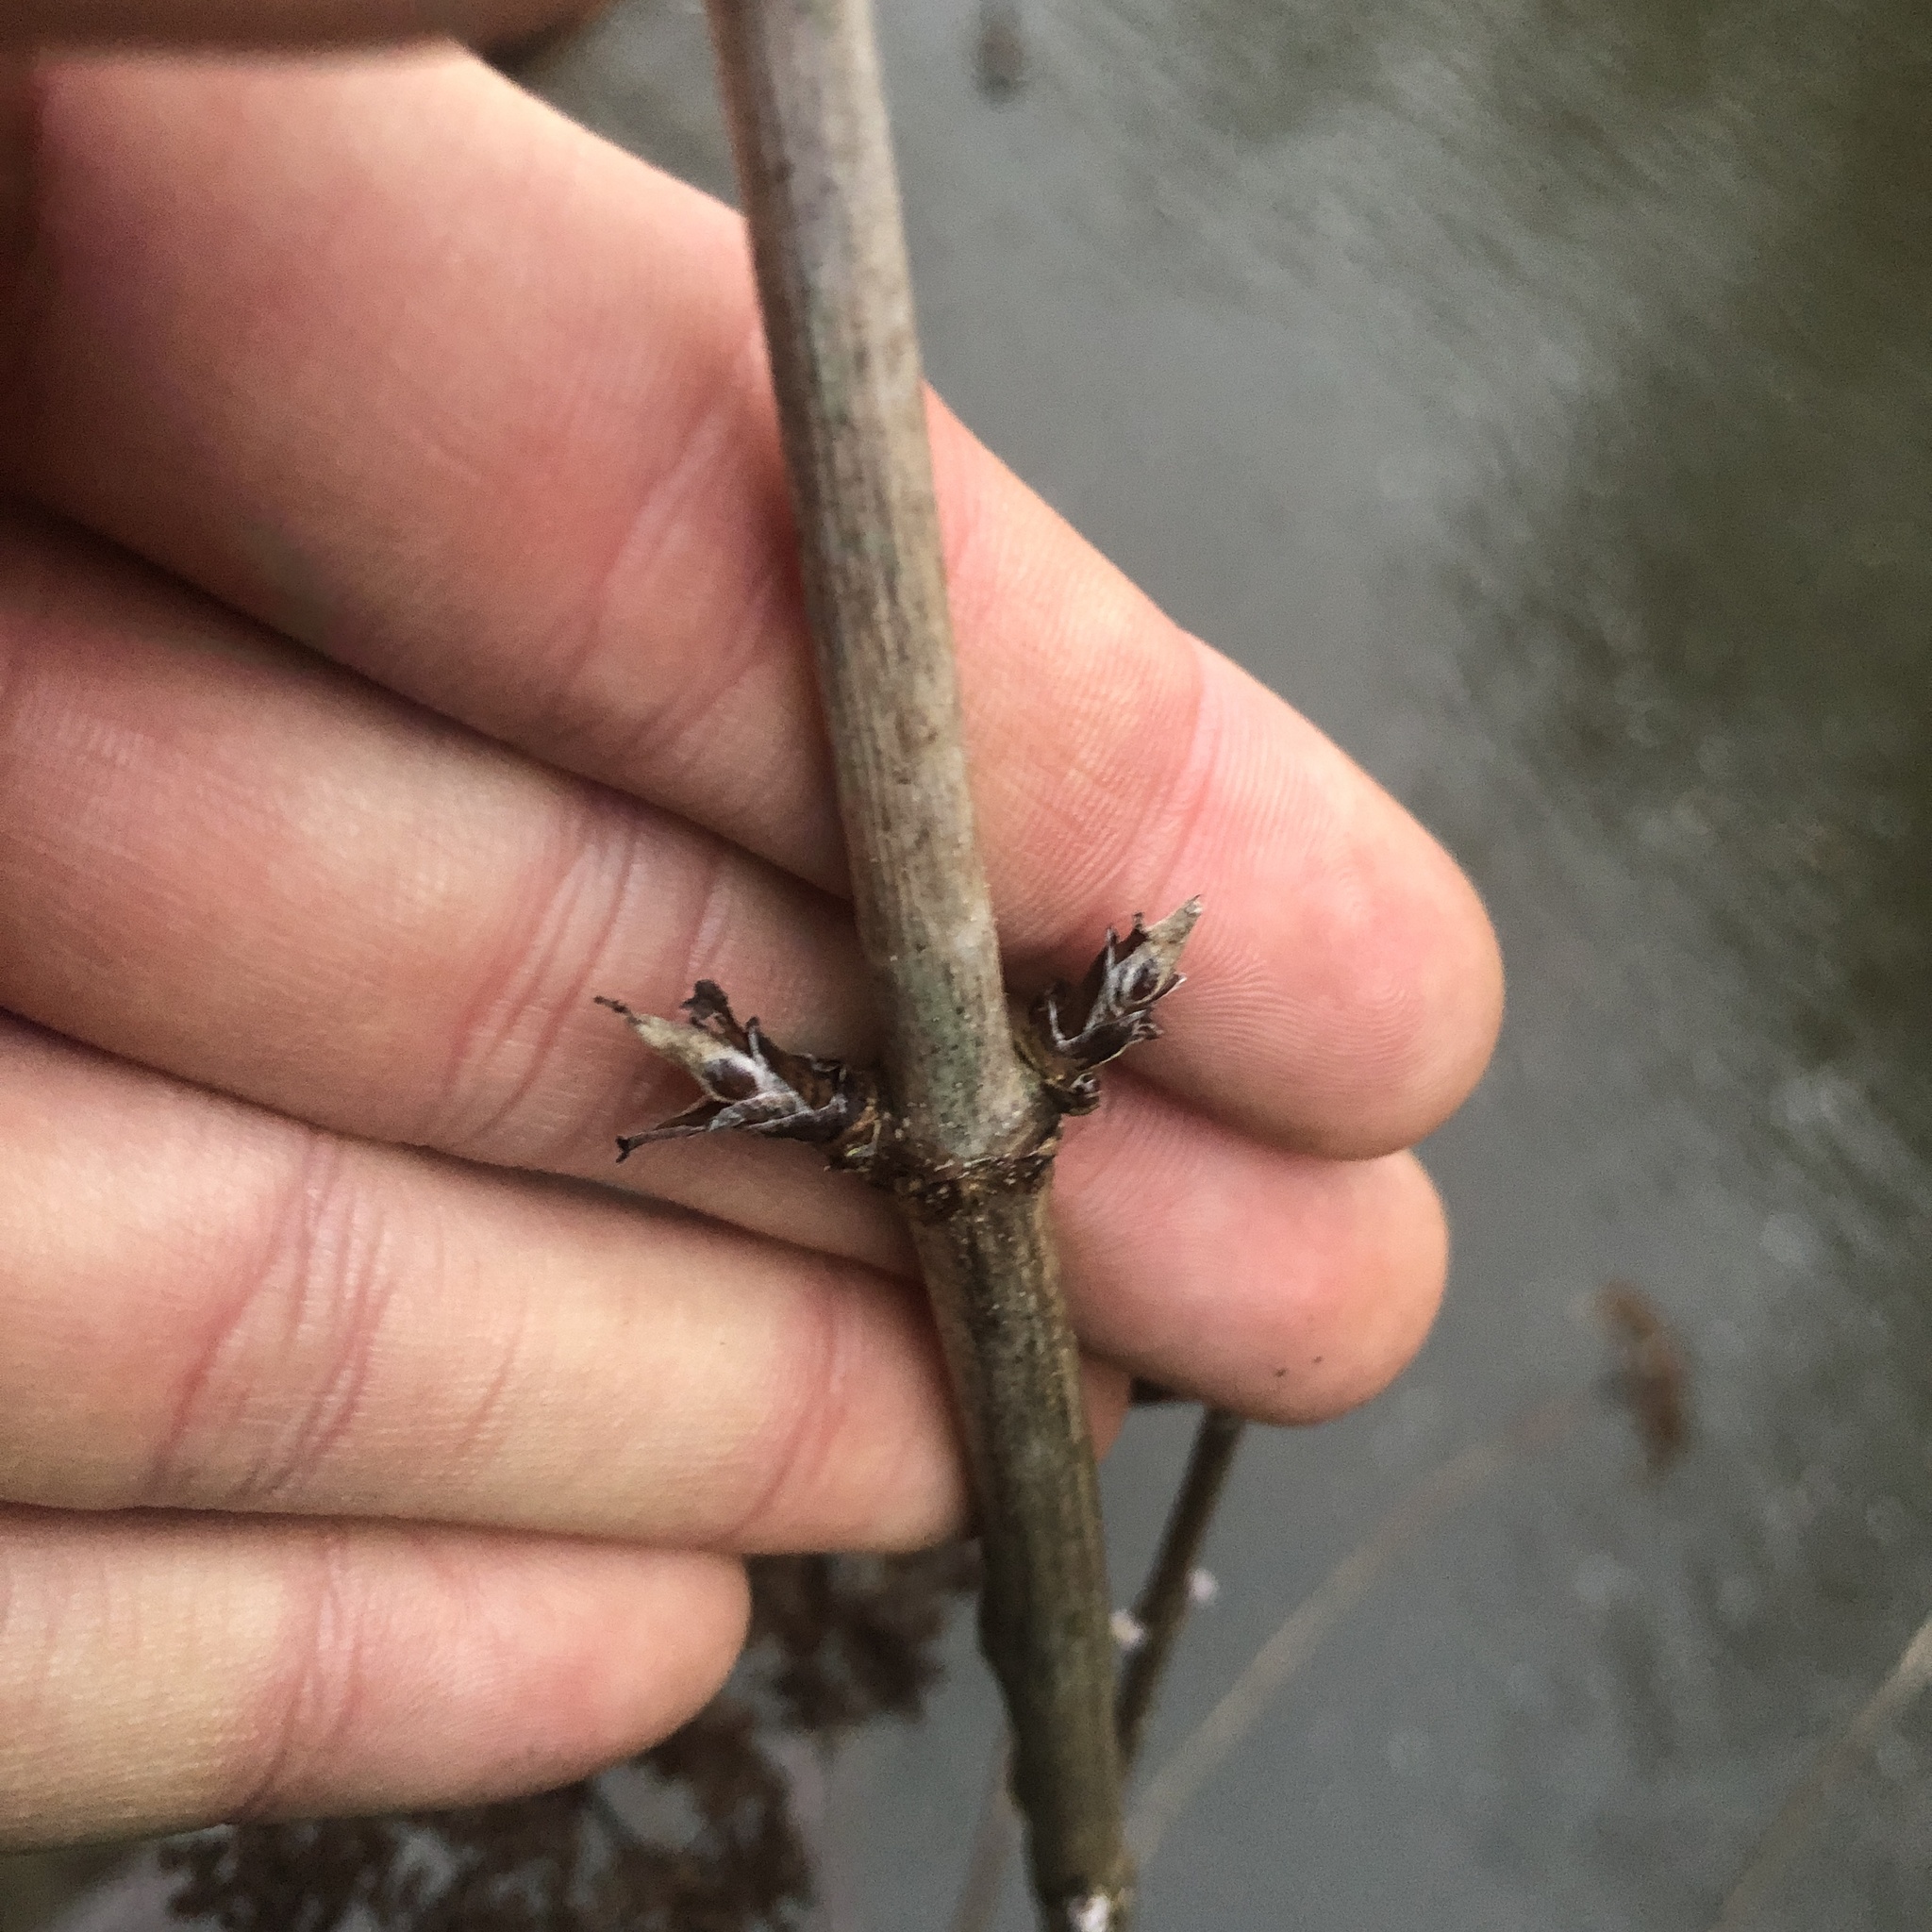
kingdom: Plantae
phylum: Tracheophyta
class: Magnoliopsida
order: Cornales
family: Hydrangeaceae
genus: Hydrangea
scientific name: Hydrangea arborescens
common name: Sevenbark
